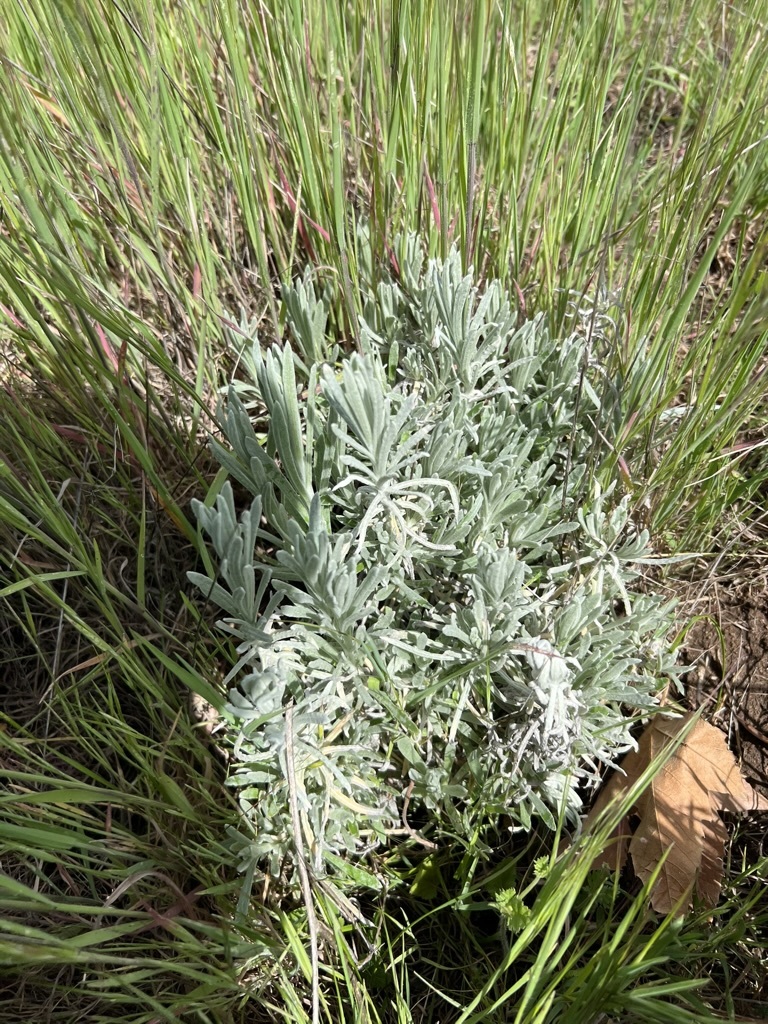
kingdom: Plantae
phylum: Tracheophyta
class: Magnoliopsida
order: Asterales
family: Asteraceae
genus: Pseudognaphalium
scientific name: Pseudognaphalium beneolens
